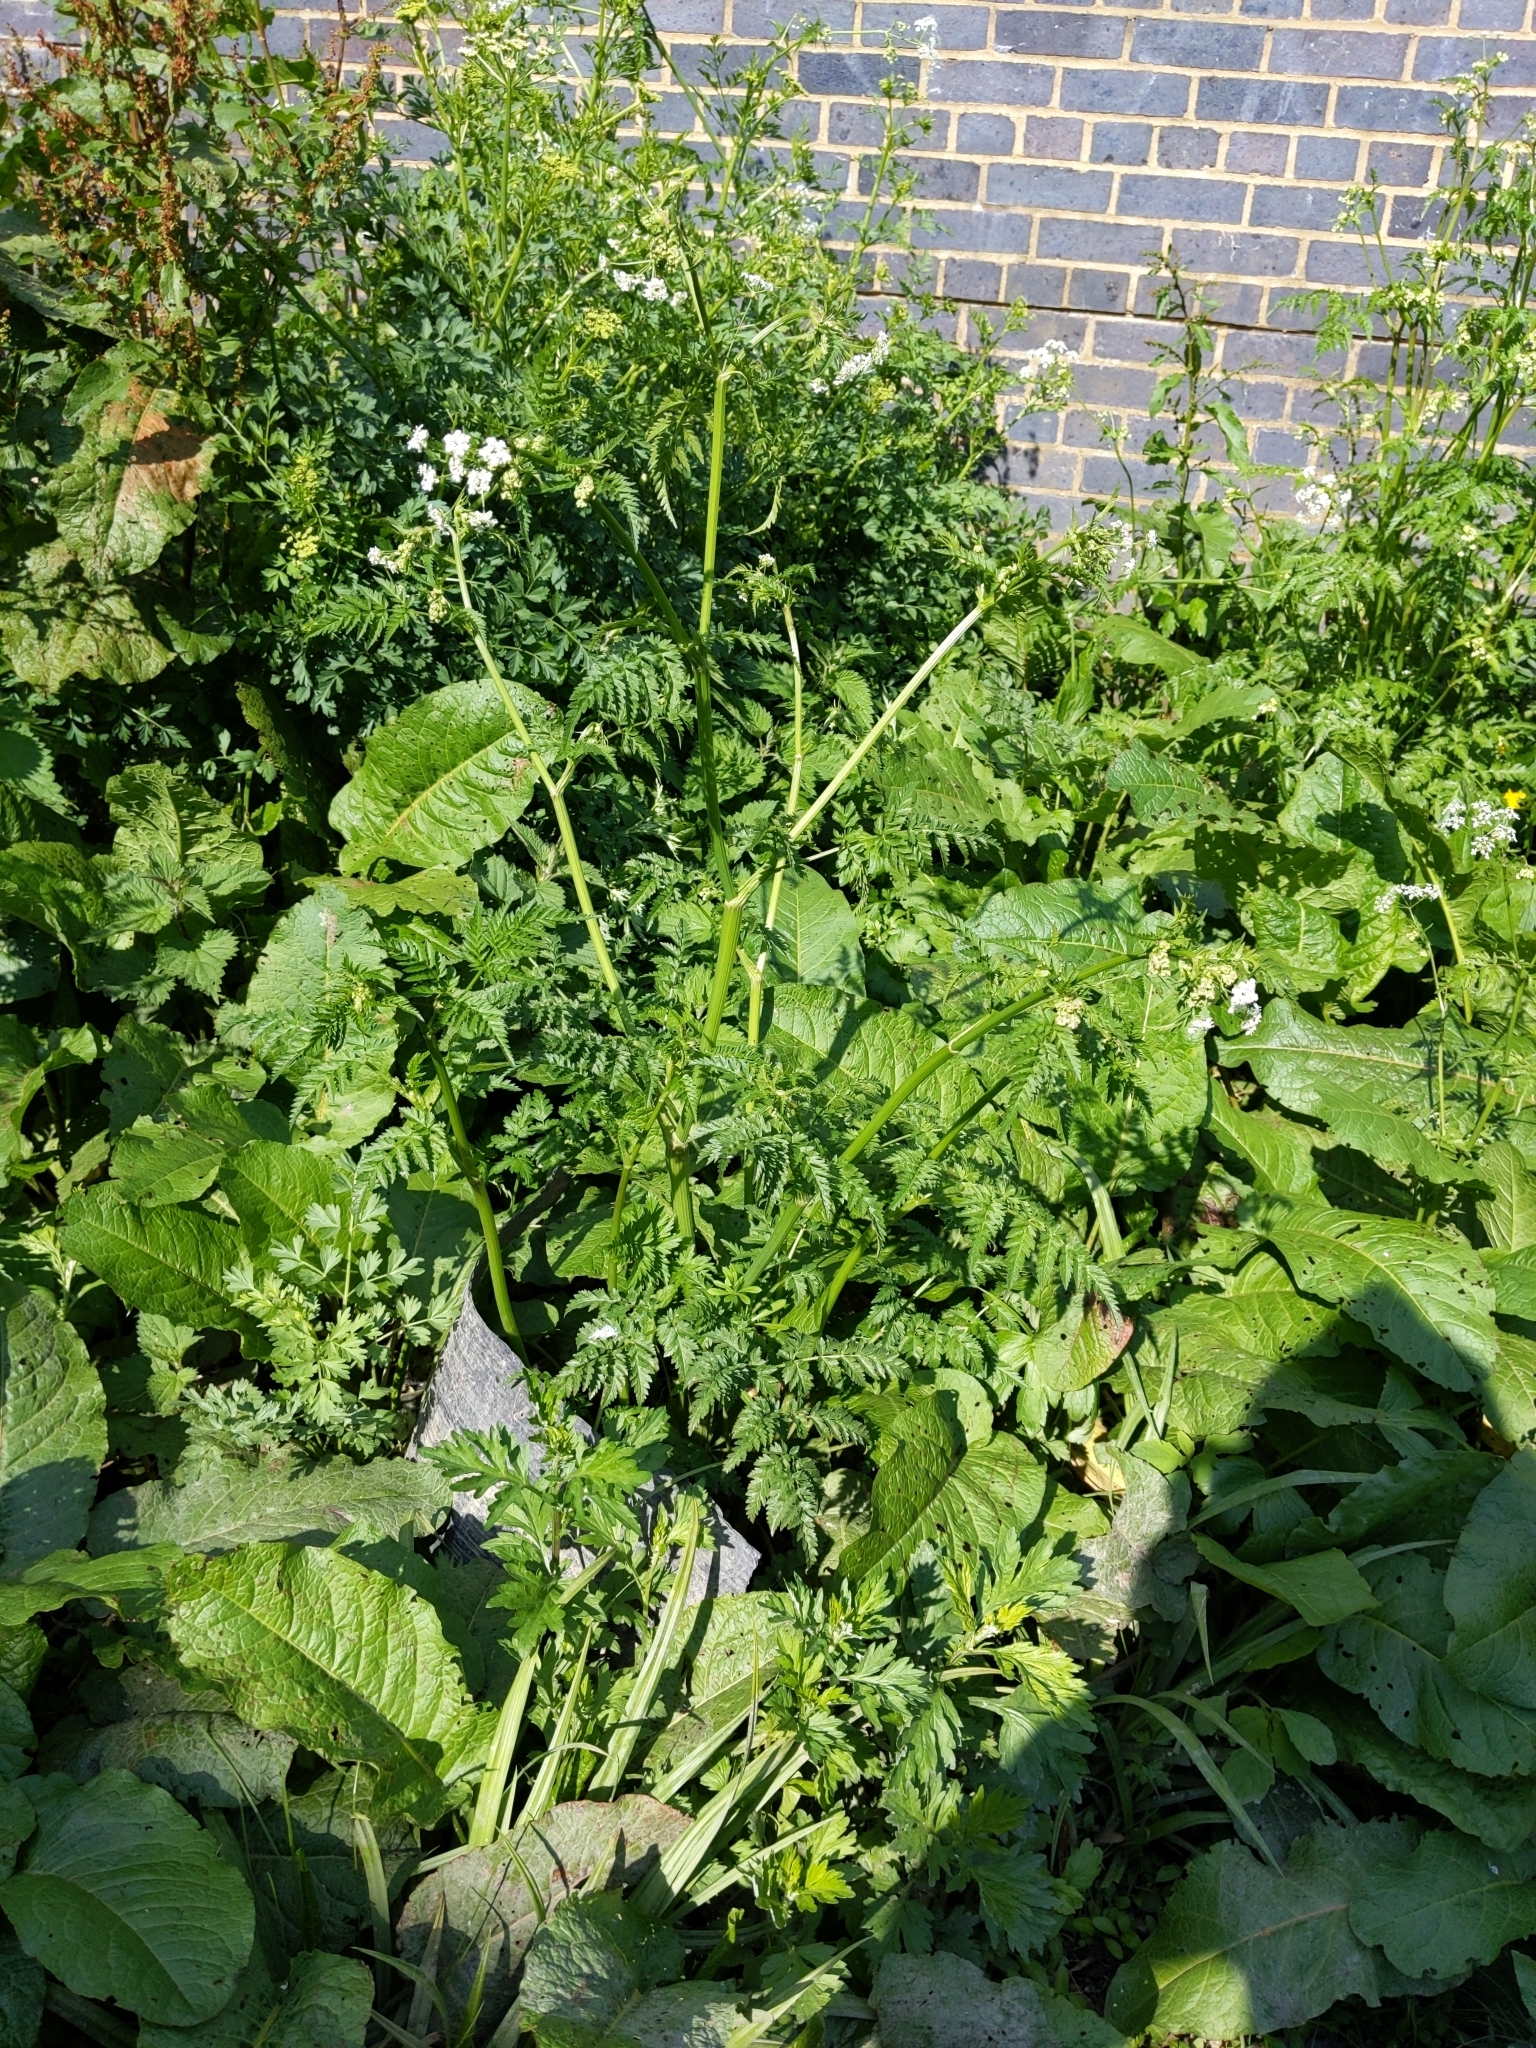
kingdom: Plantae
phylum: Tracheophyta
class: Magnoliopsida
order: Apiales
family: Apiaceae
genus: Anthriscus
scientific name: Anthriscus sylvestris
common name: Cow parsley
